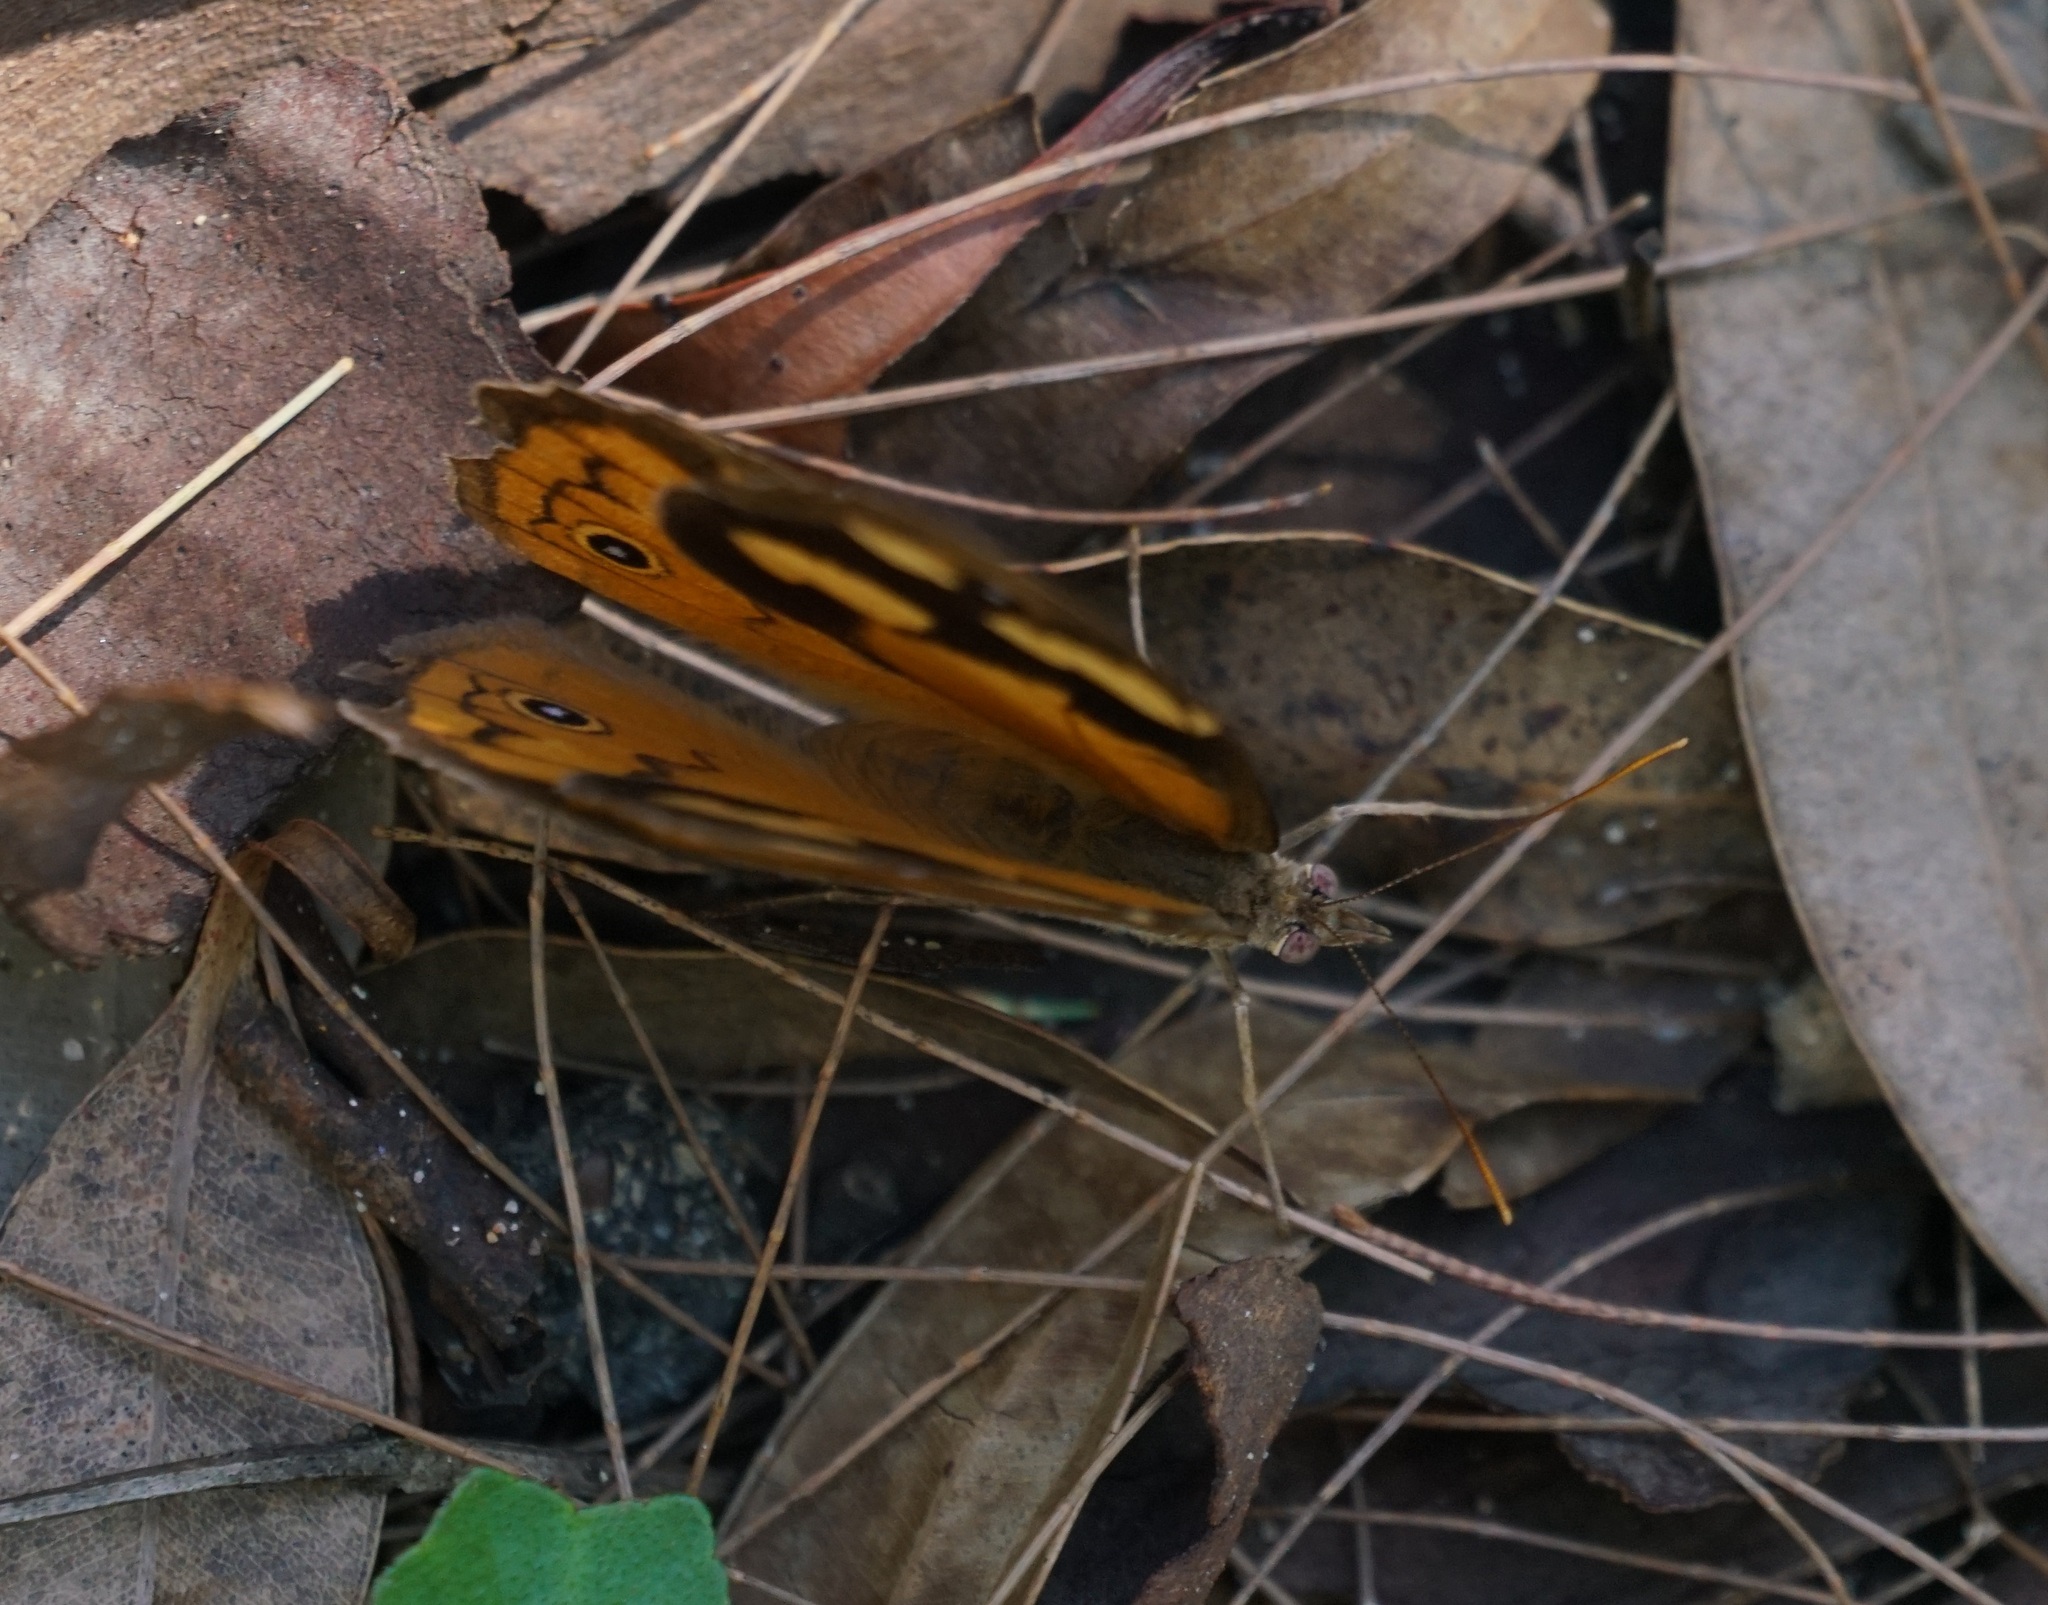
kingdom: Animalia
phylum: Arthropoda
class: Insecta
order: Lepidoptera
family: Nymphalidae
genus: Heteronympha
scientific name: Heteronympha merope
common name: Common brown
